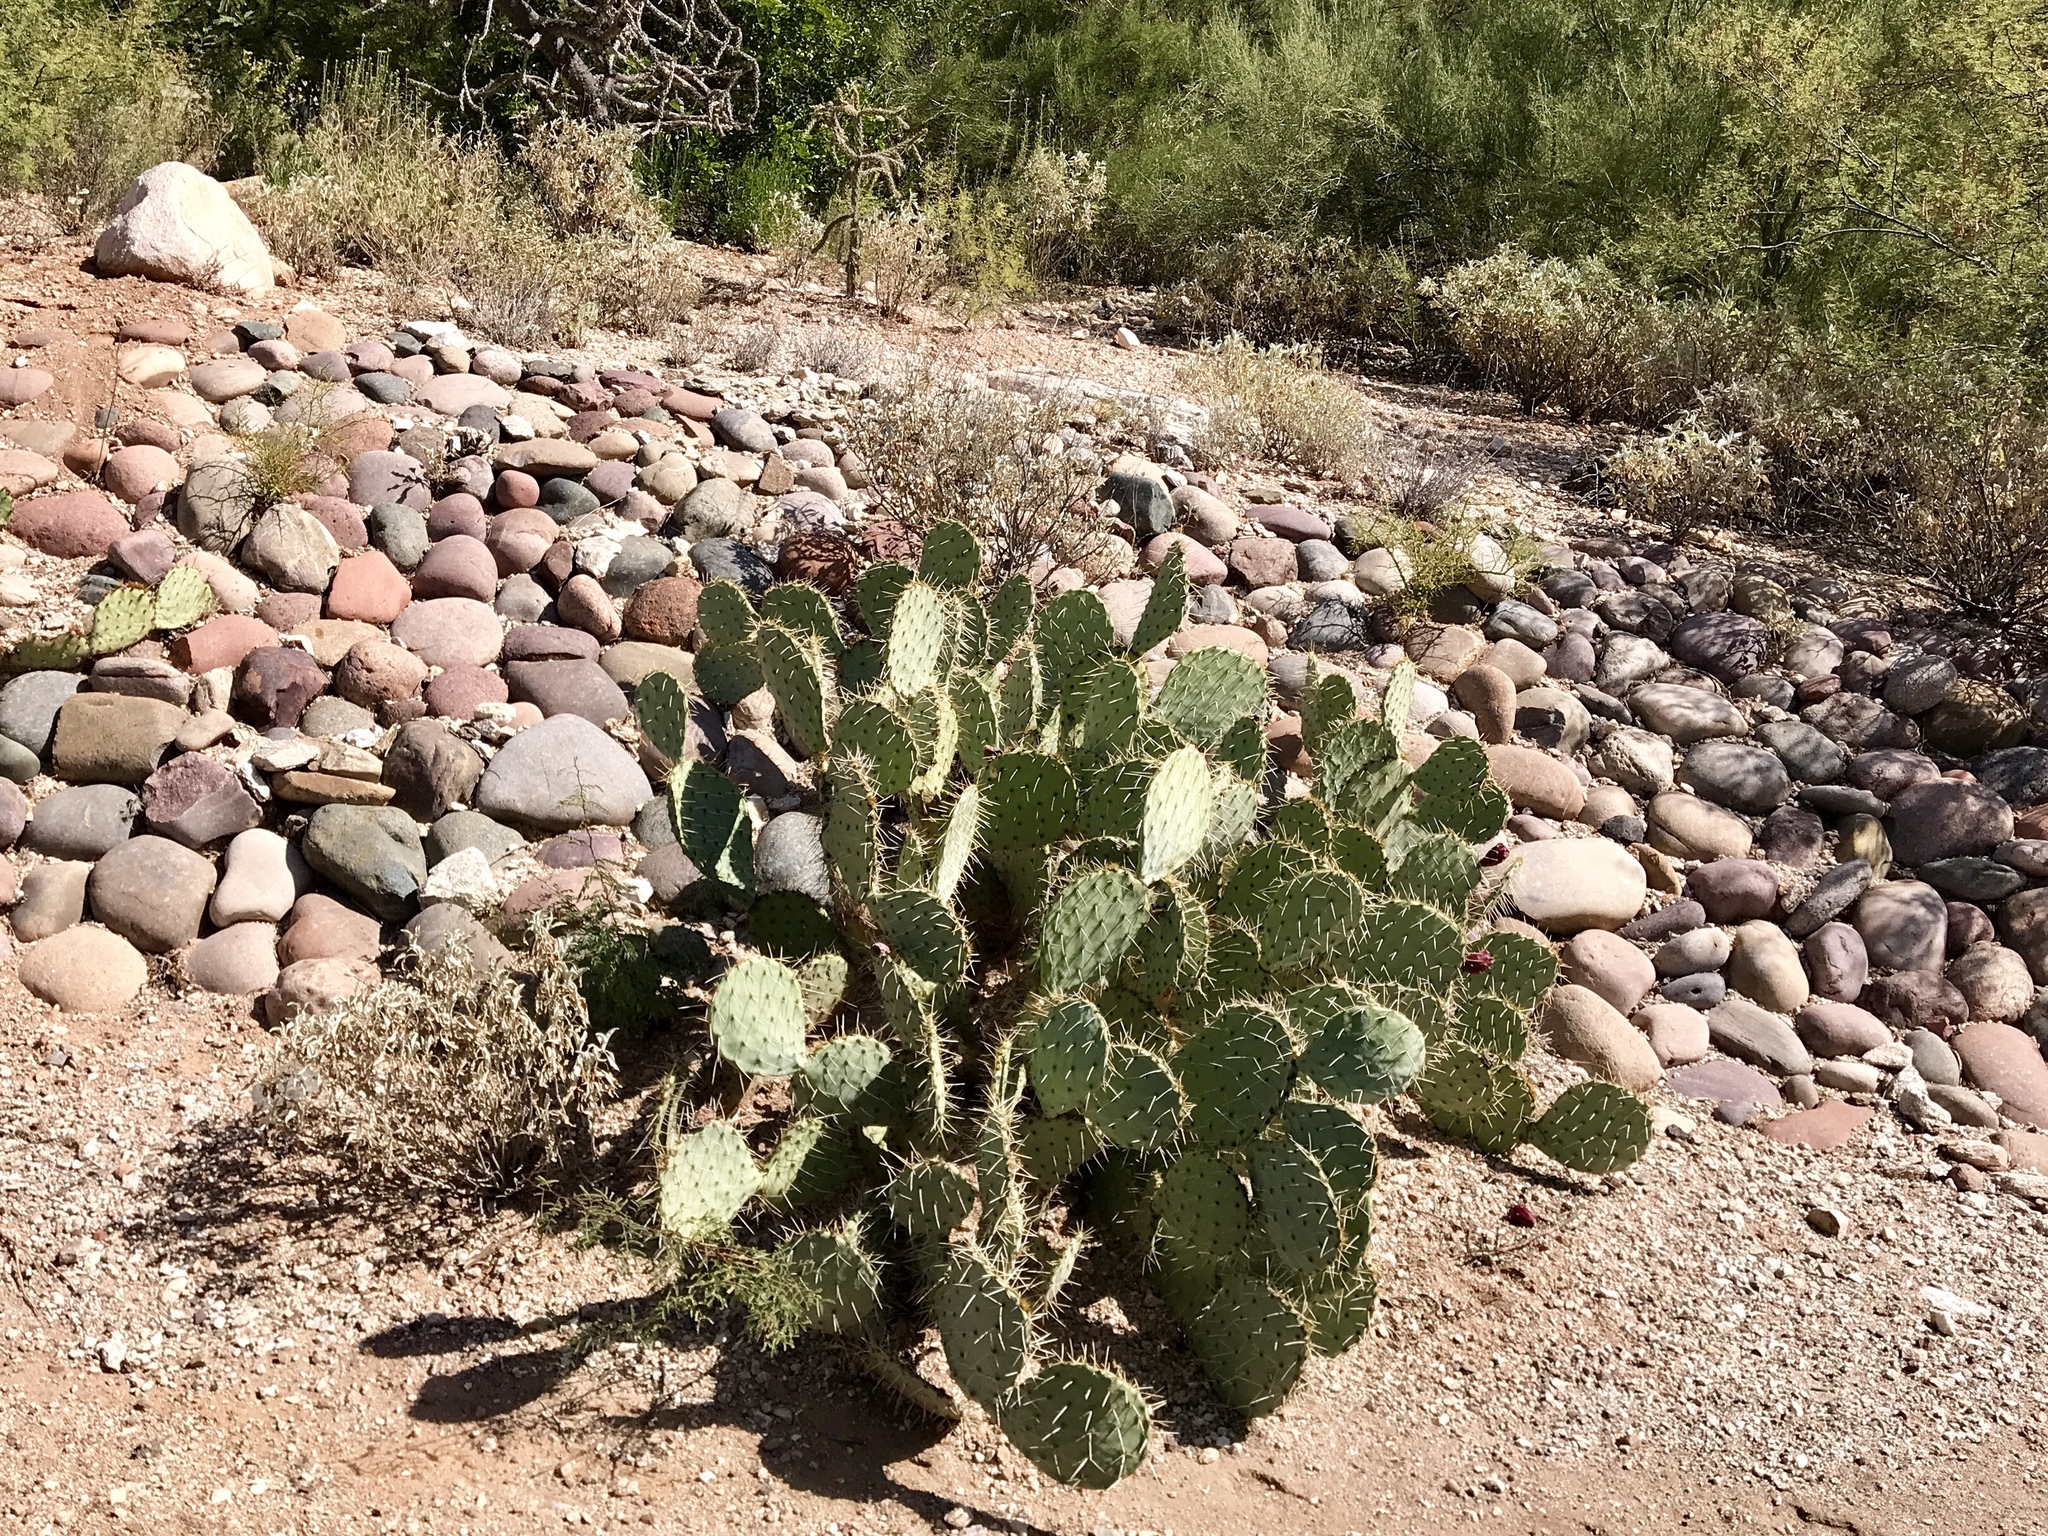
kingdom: Plantae
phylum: Tracheophyta
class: Magnoliopsida
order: Caryophyllales
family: Cactaceae
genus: Opuntia
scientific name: Opuntia engelmannii
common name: Cactus-apple
